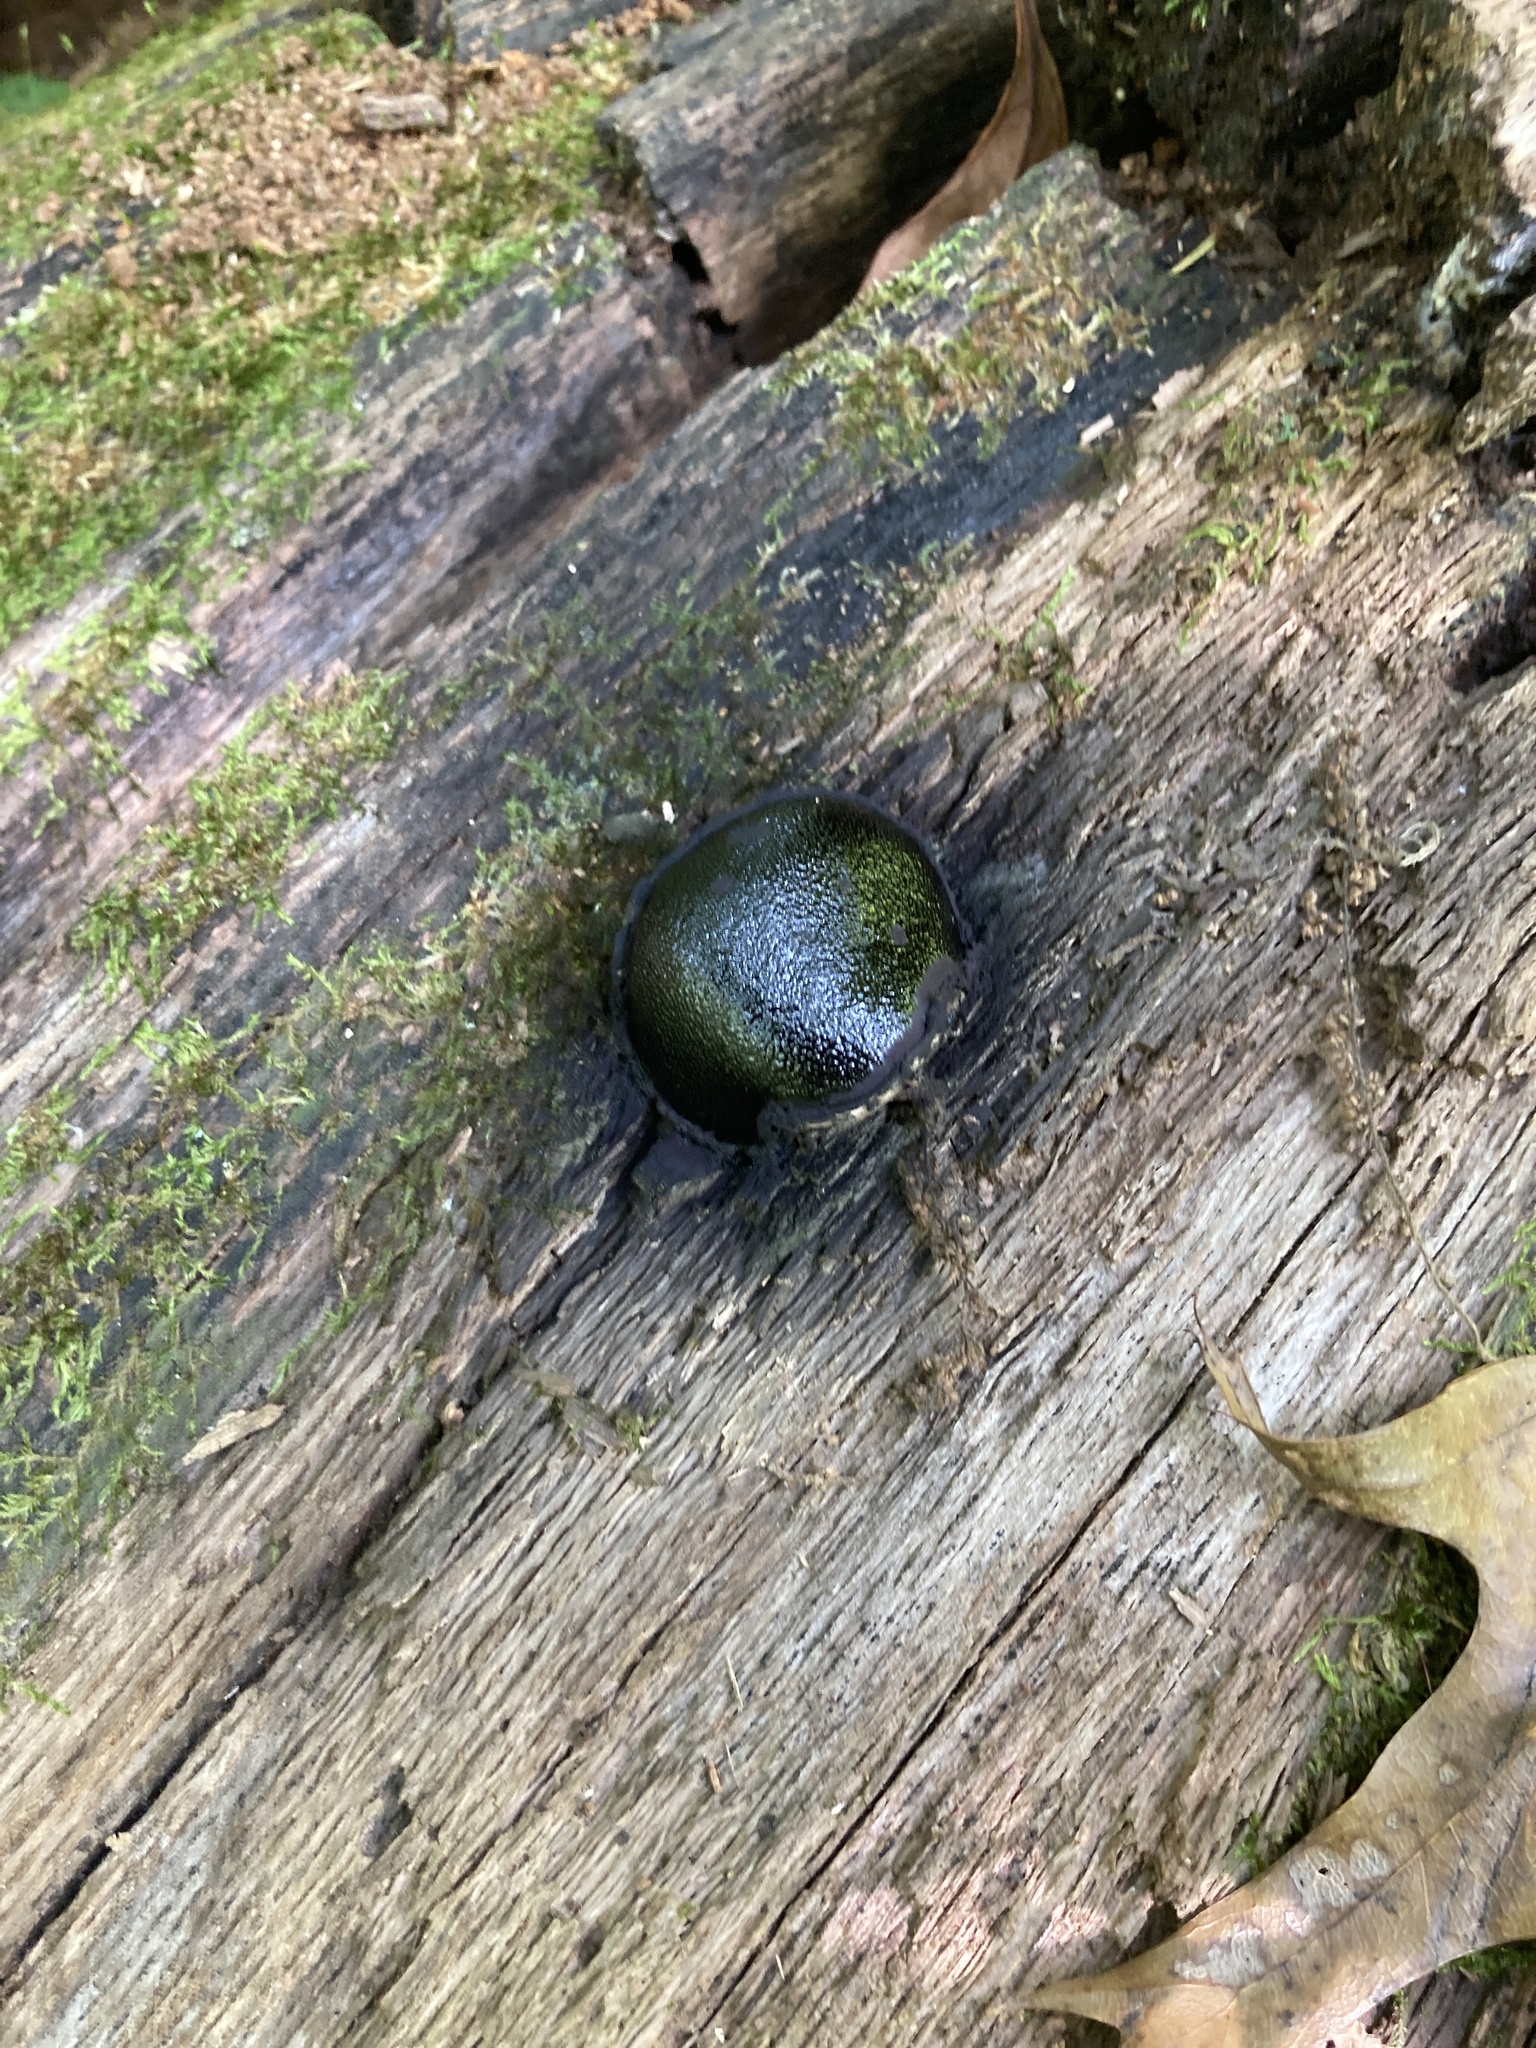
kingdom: Fungi
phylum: Ascomycota
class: Sordariomycetes
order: Boliniales
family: Boliniaceae
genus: Camarops
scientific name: Camarops petersii
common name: Dog's nose fungus
